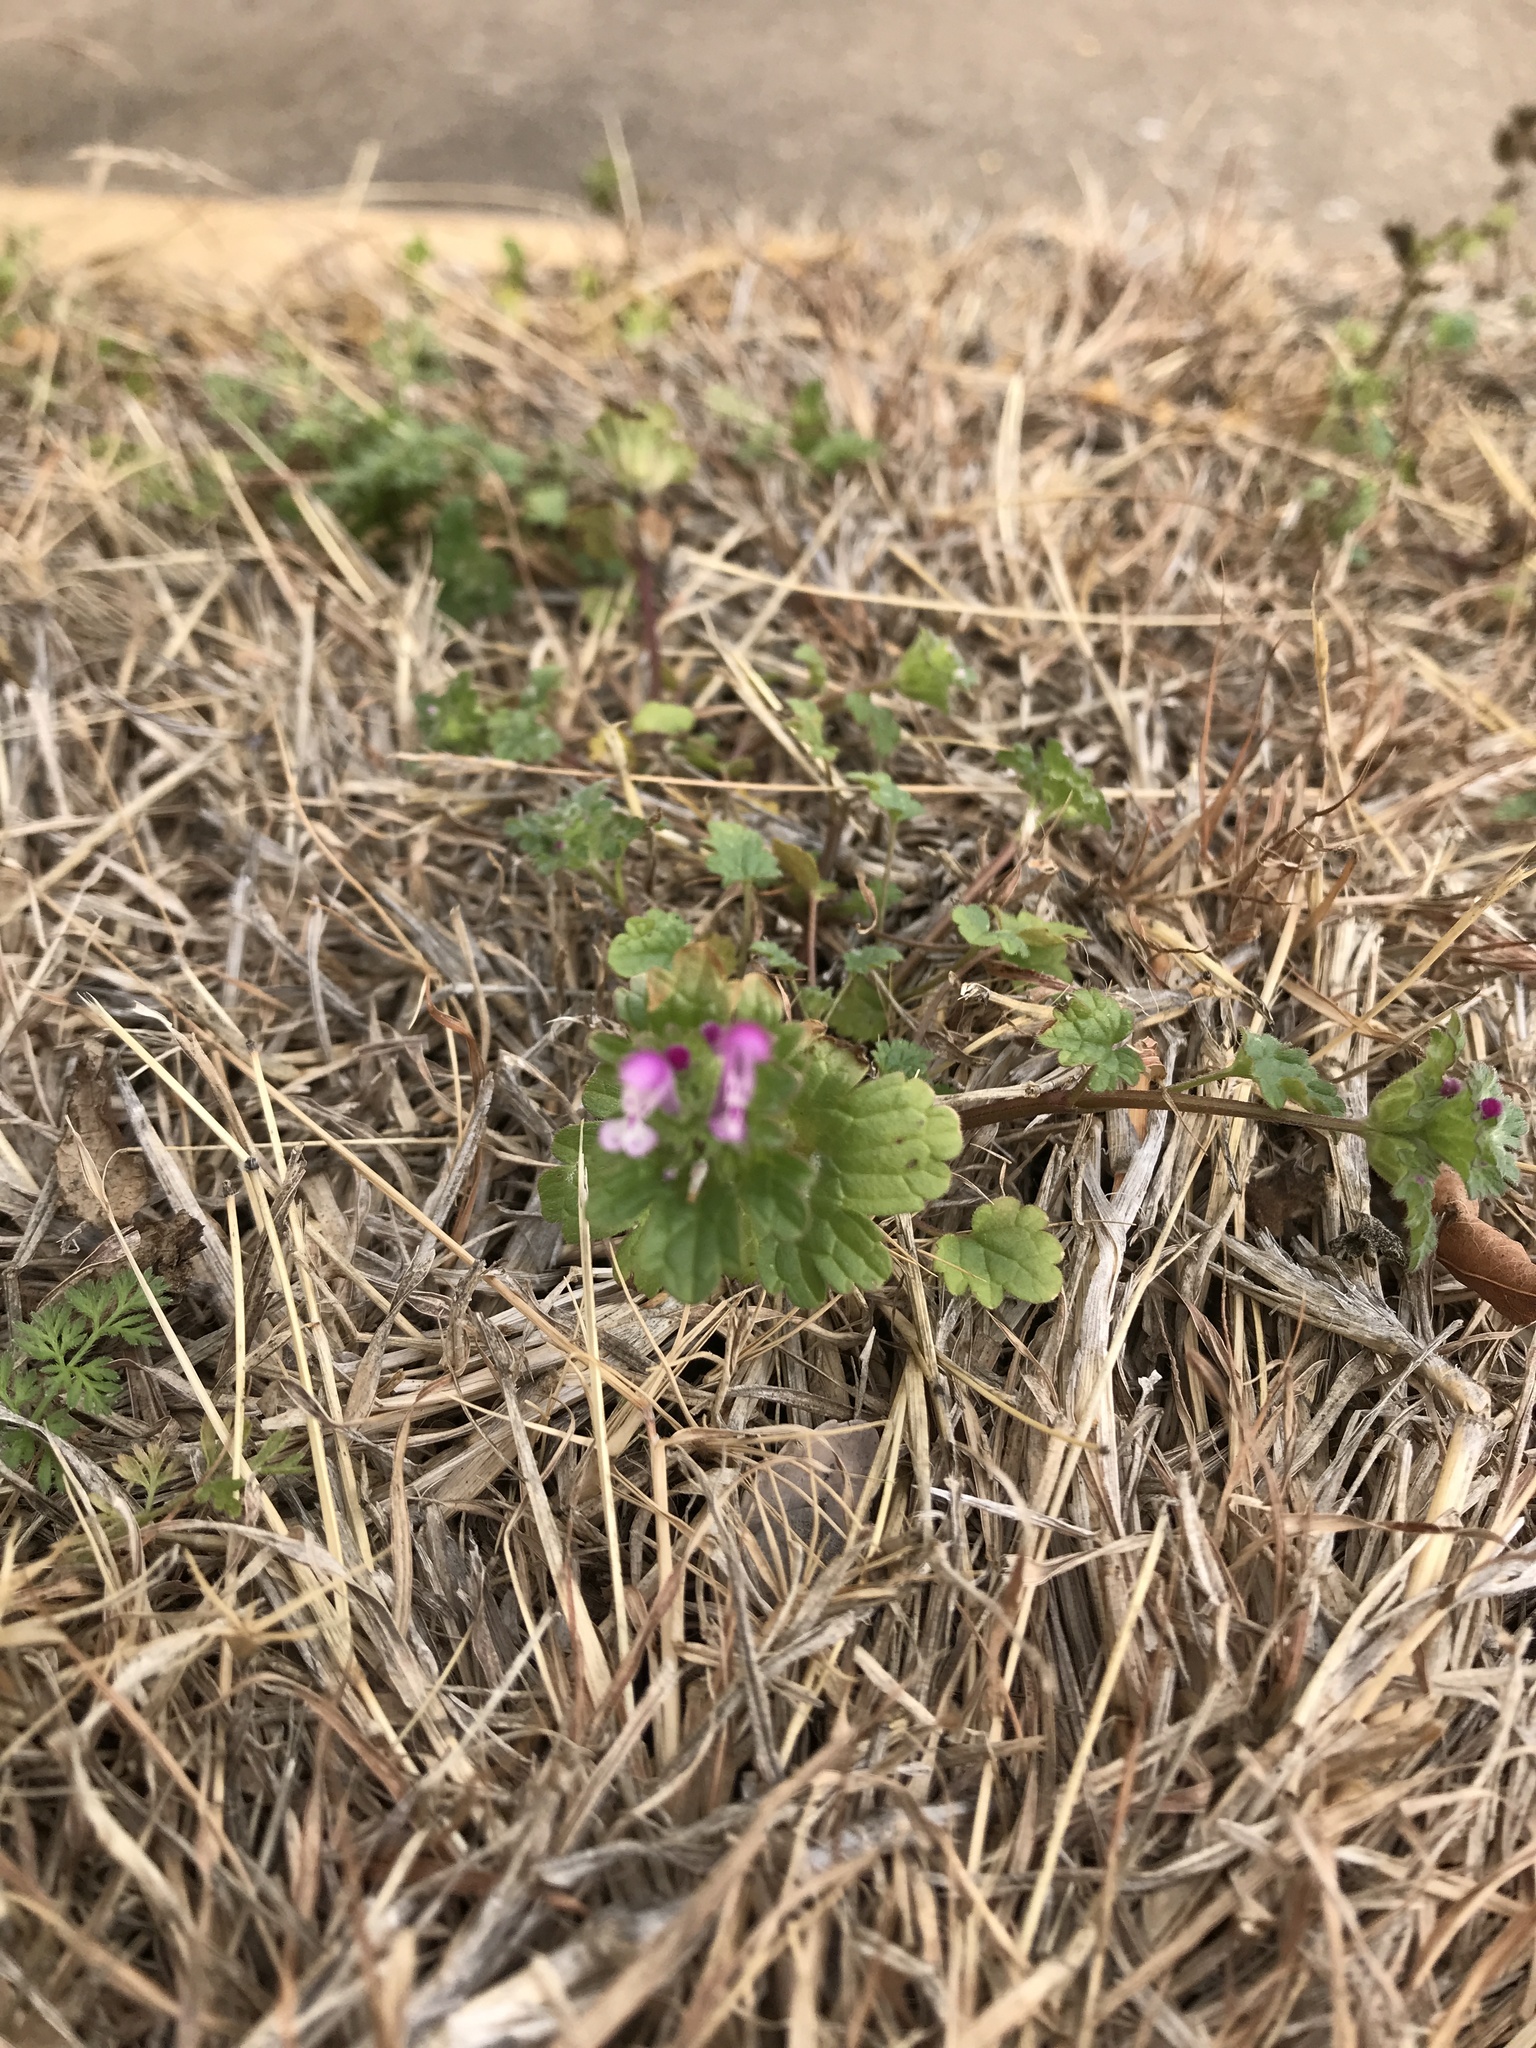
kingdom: Plantae
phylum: Tracheophyta
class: Magnoliopsida
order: Lamiales
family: Lamiaceae
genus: Lamium
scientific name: Lamium amplexicaule
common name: Henbit dead-nettle
